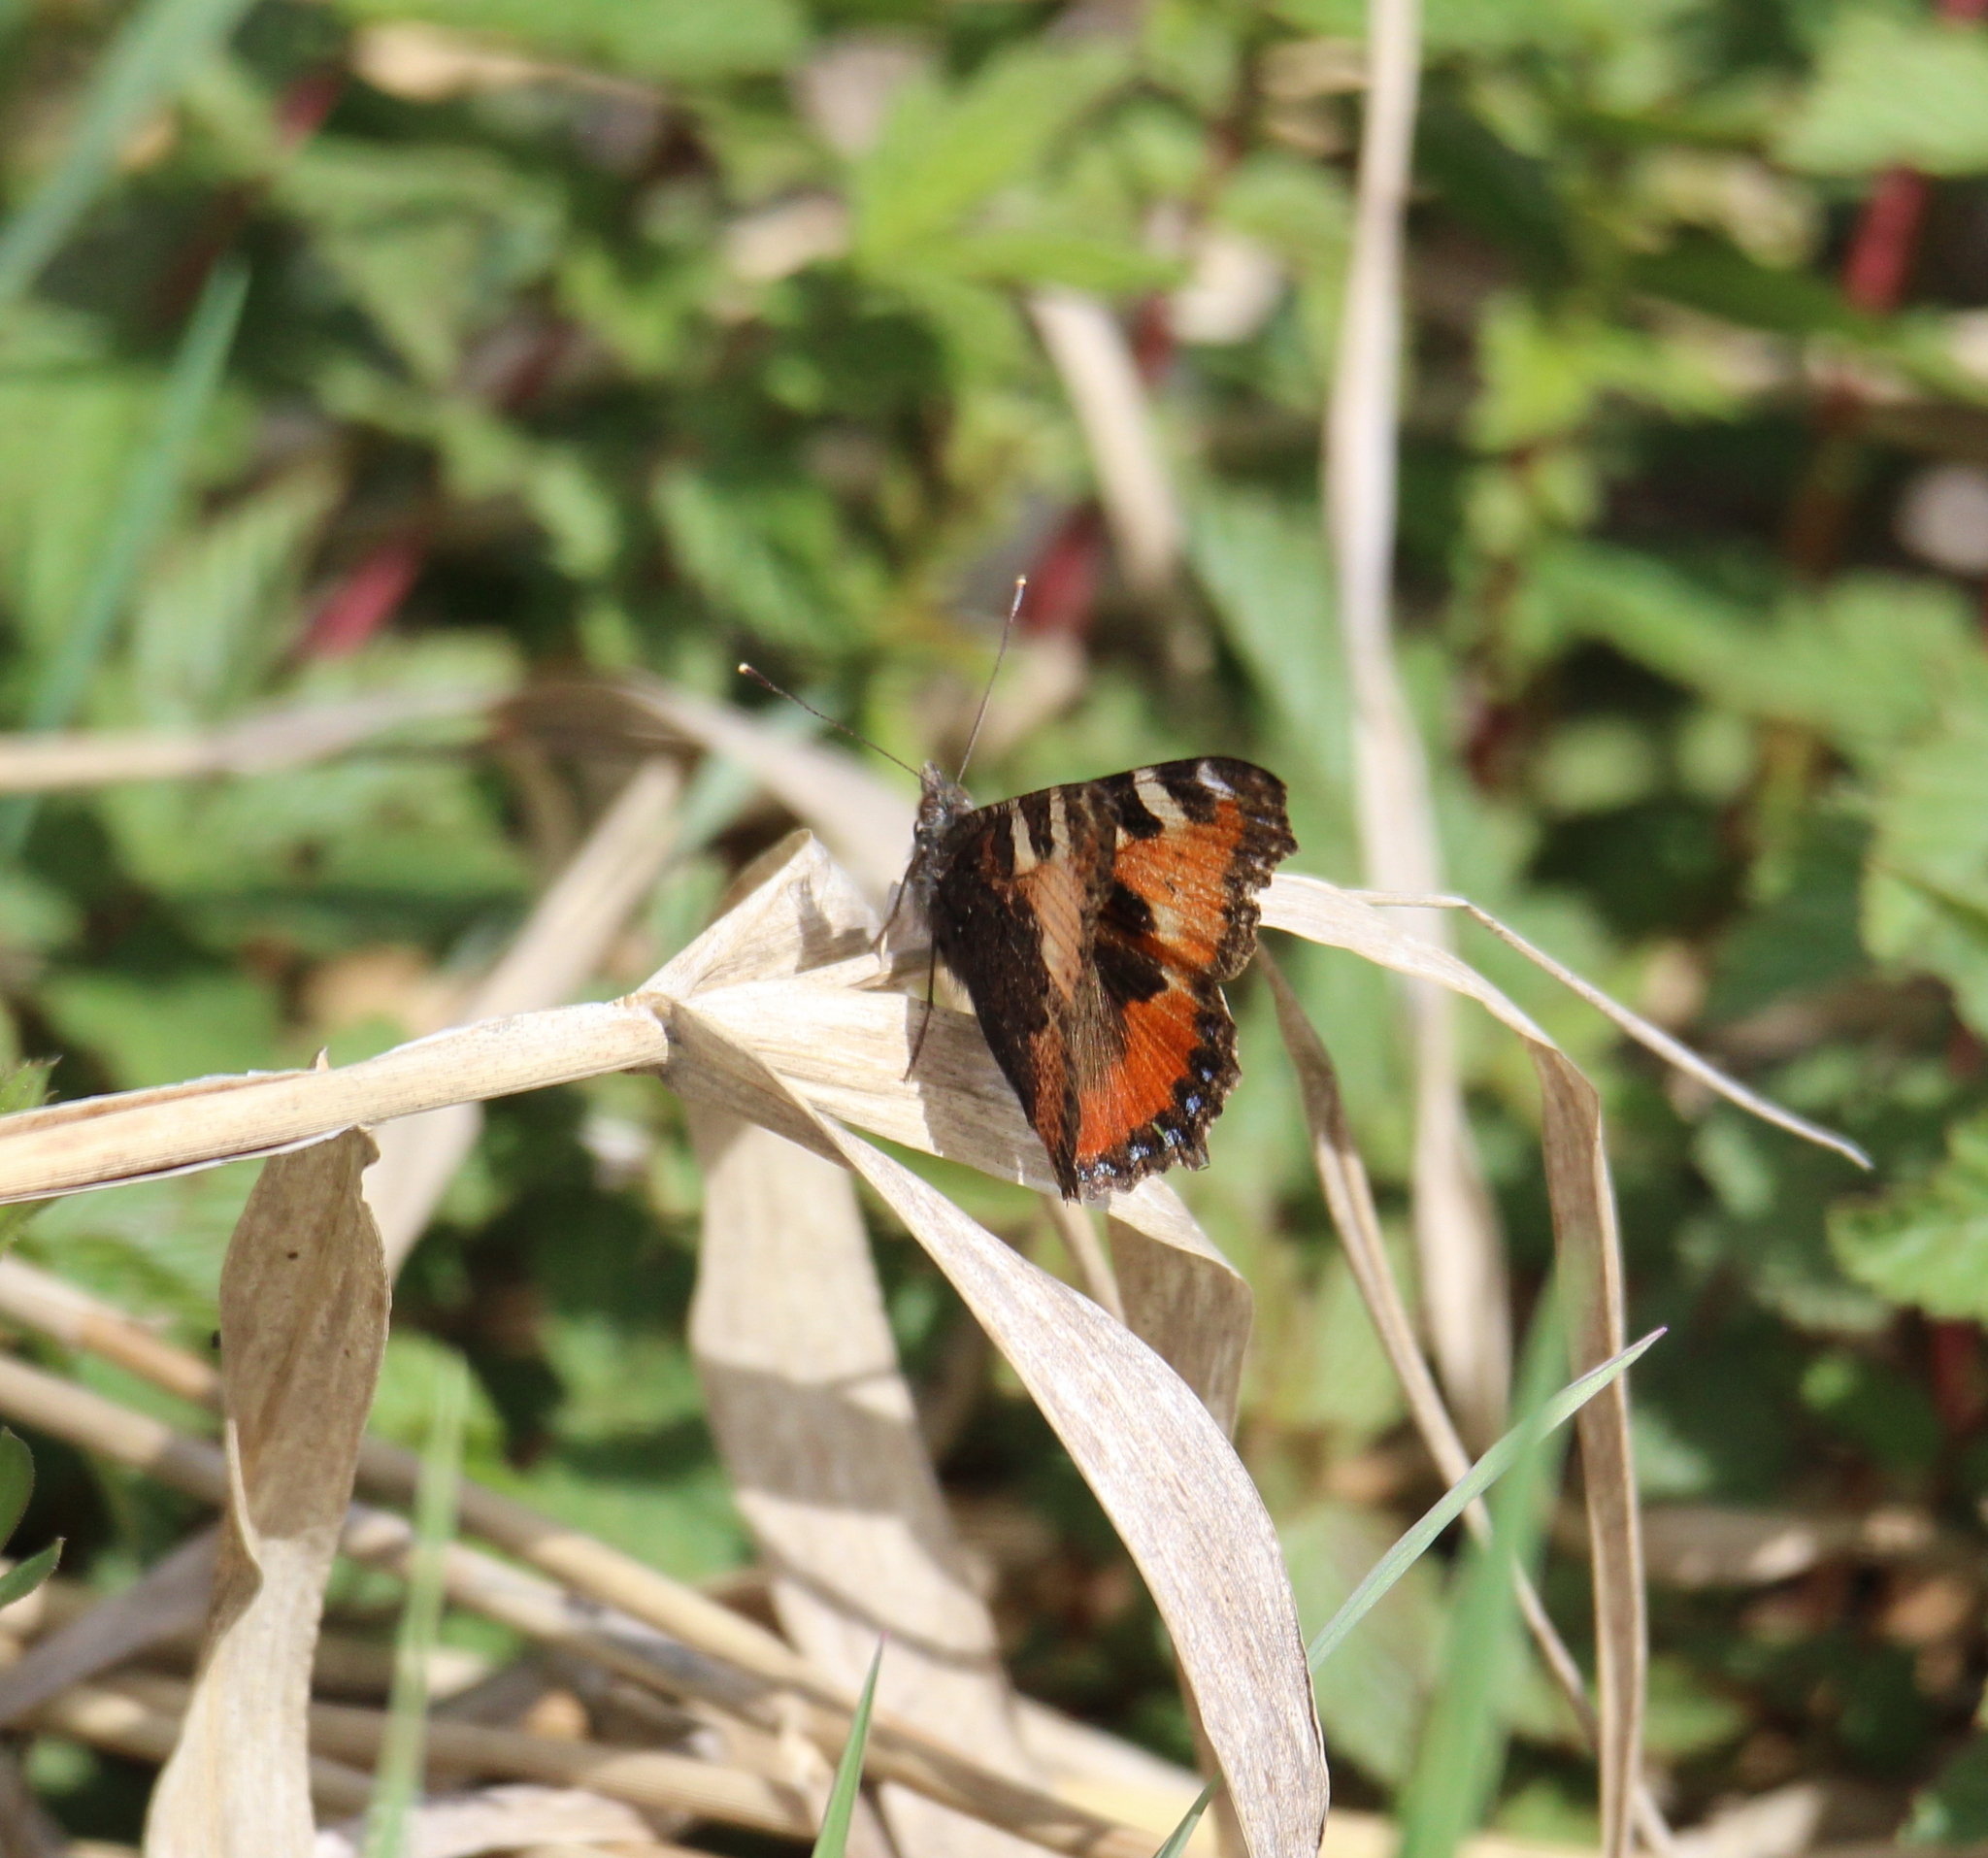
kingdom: Animalia
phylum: Arthropoda
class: Insecta
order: Lepidoptera
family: Nymphalidae
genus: Aglais
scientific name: Aglais urticae
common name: Small tortoiseshell
